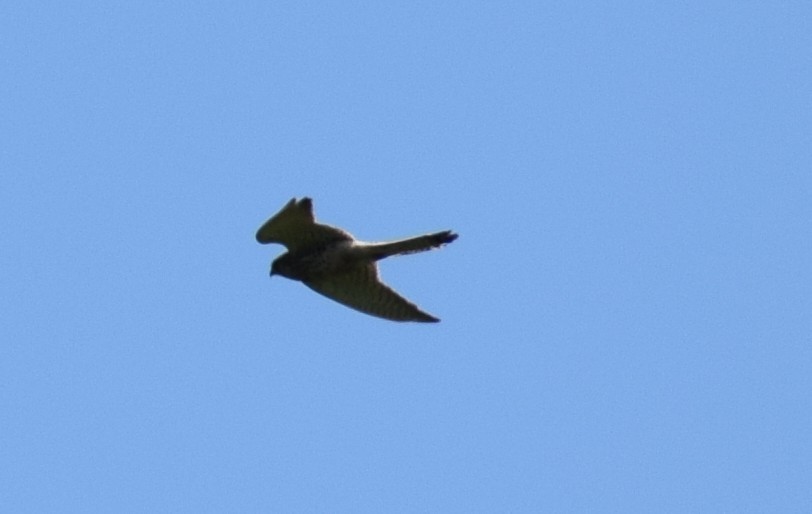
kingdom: Animalia
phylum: Chordata
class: Aves
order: Falconiformes
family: Falconidae
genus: Falco
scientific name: Falco tinnunculus
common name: Common kestrel
